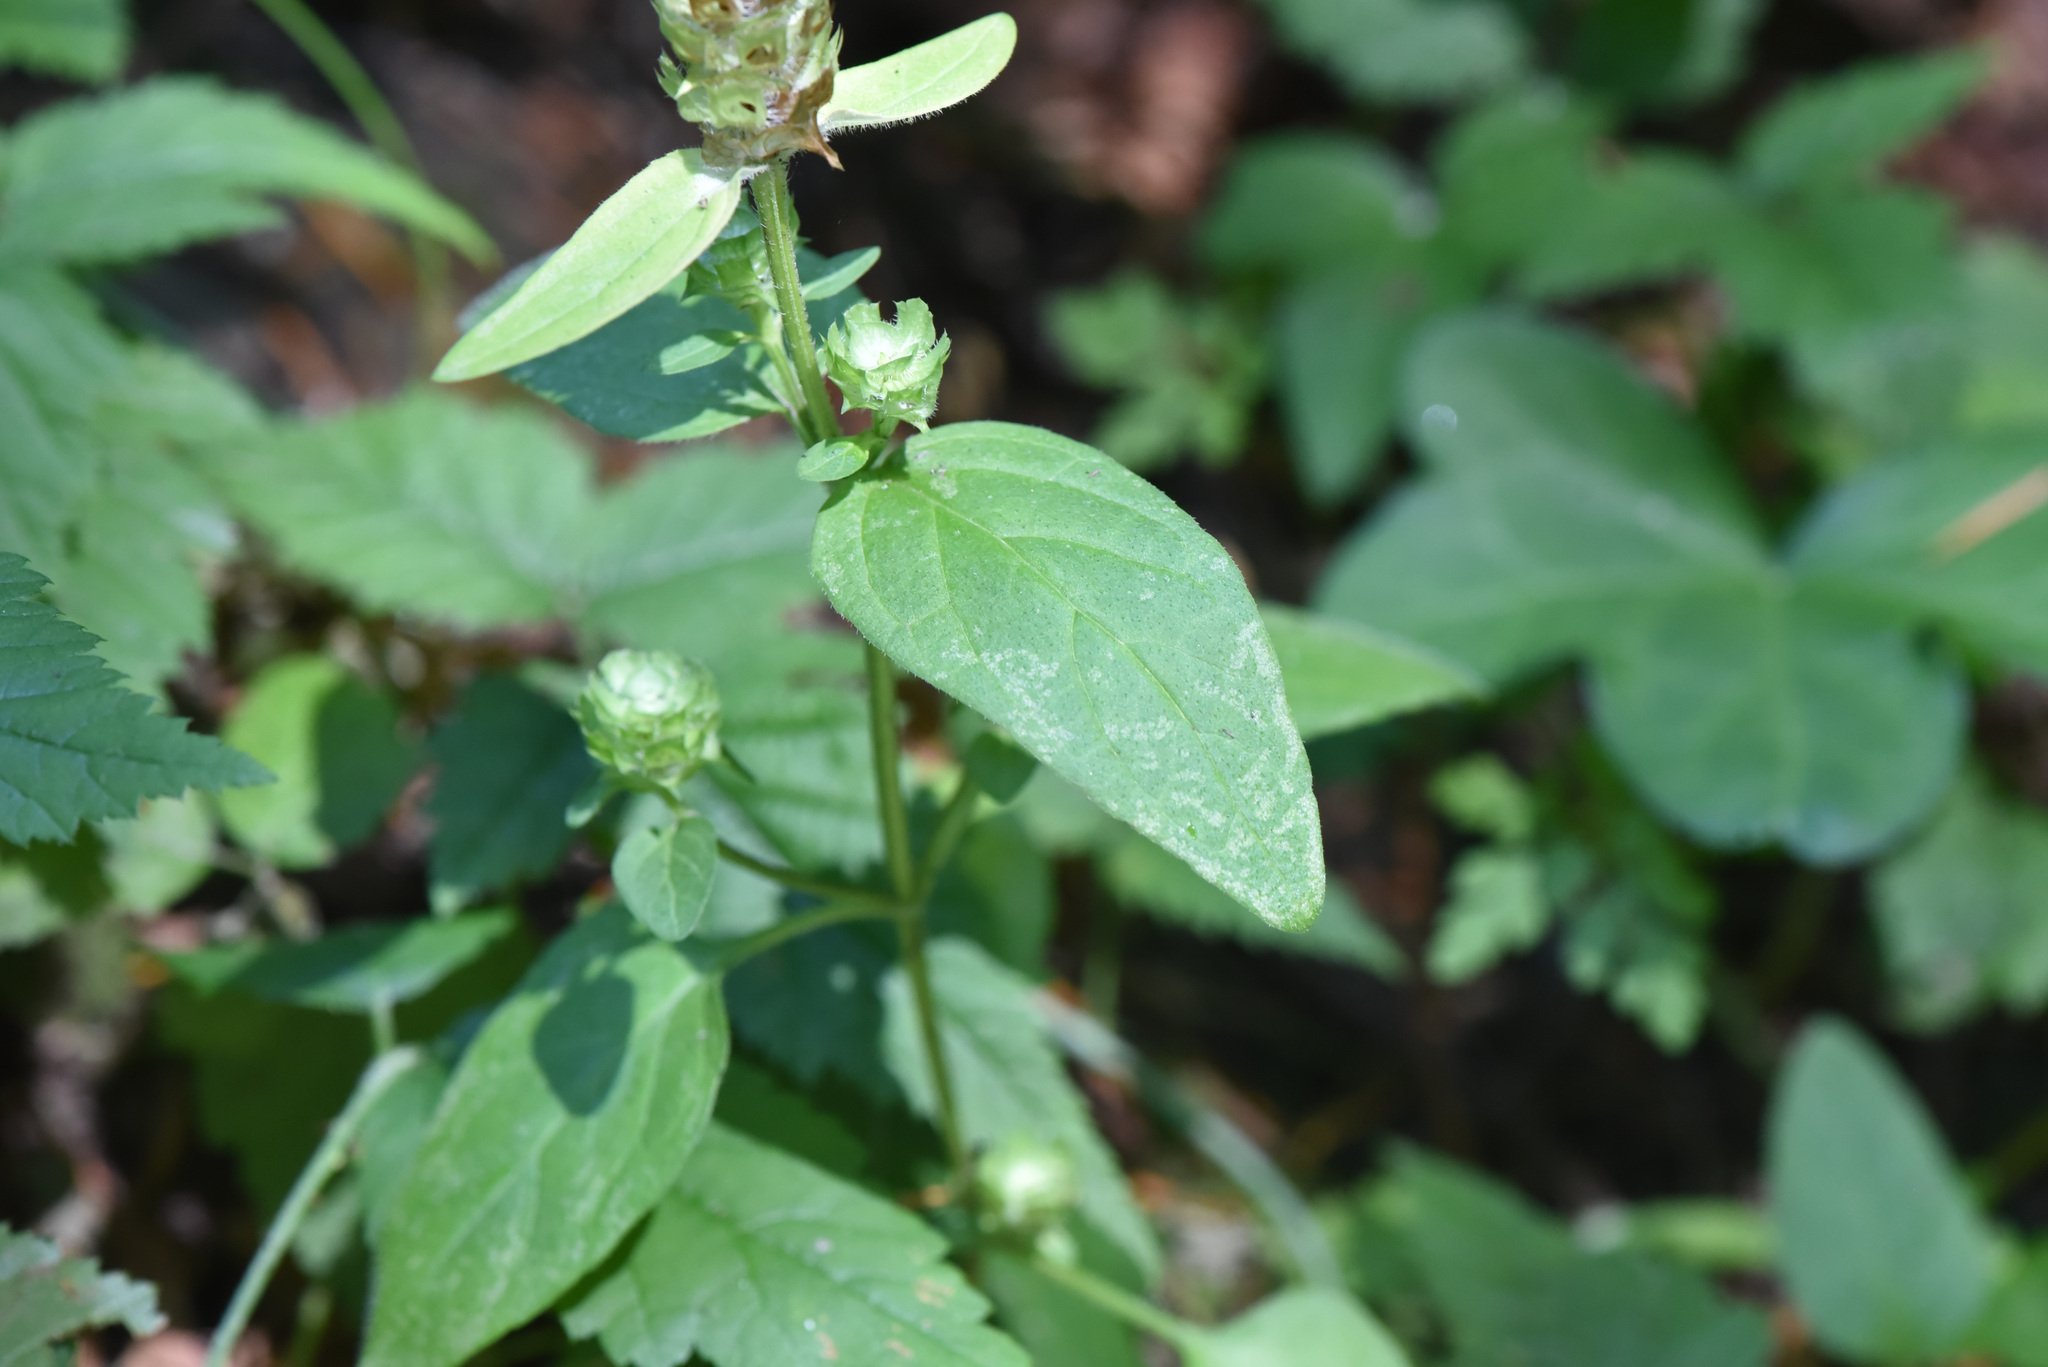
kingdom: Plantae
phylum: Tracheophyta
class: Magnoliopsida
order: Lamiales
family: Lamiaceae
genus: Prunella
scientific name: Prunella vulgaris
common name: Heal-all
